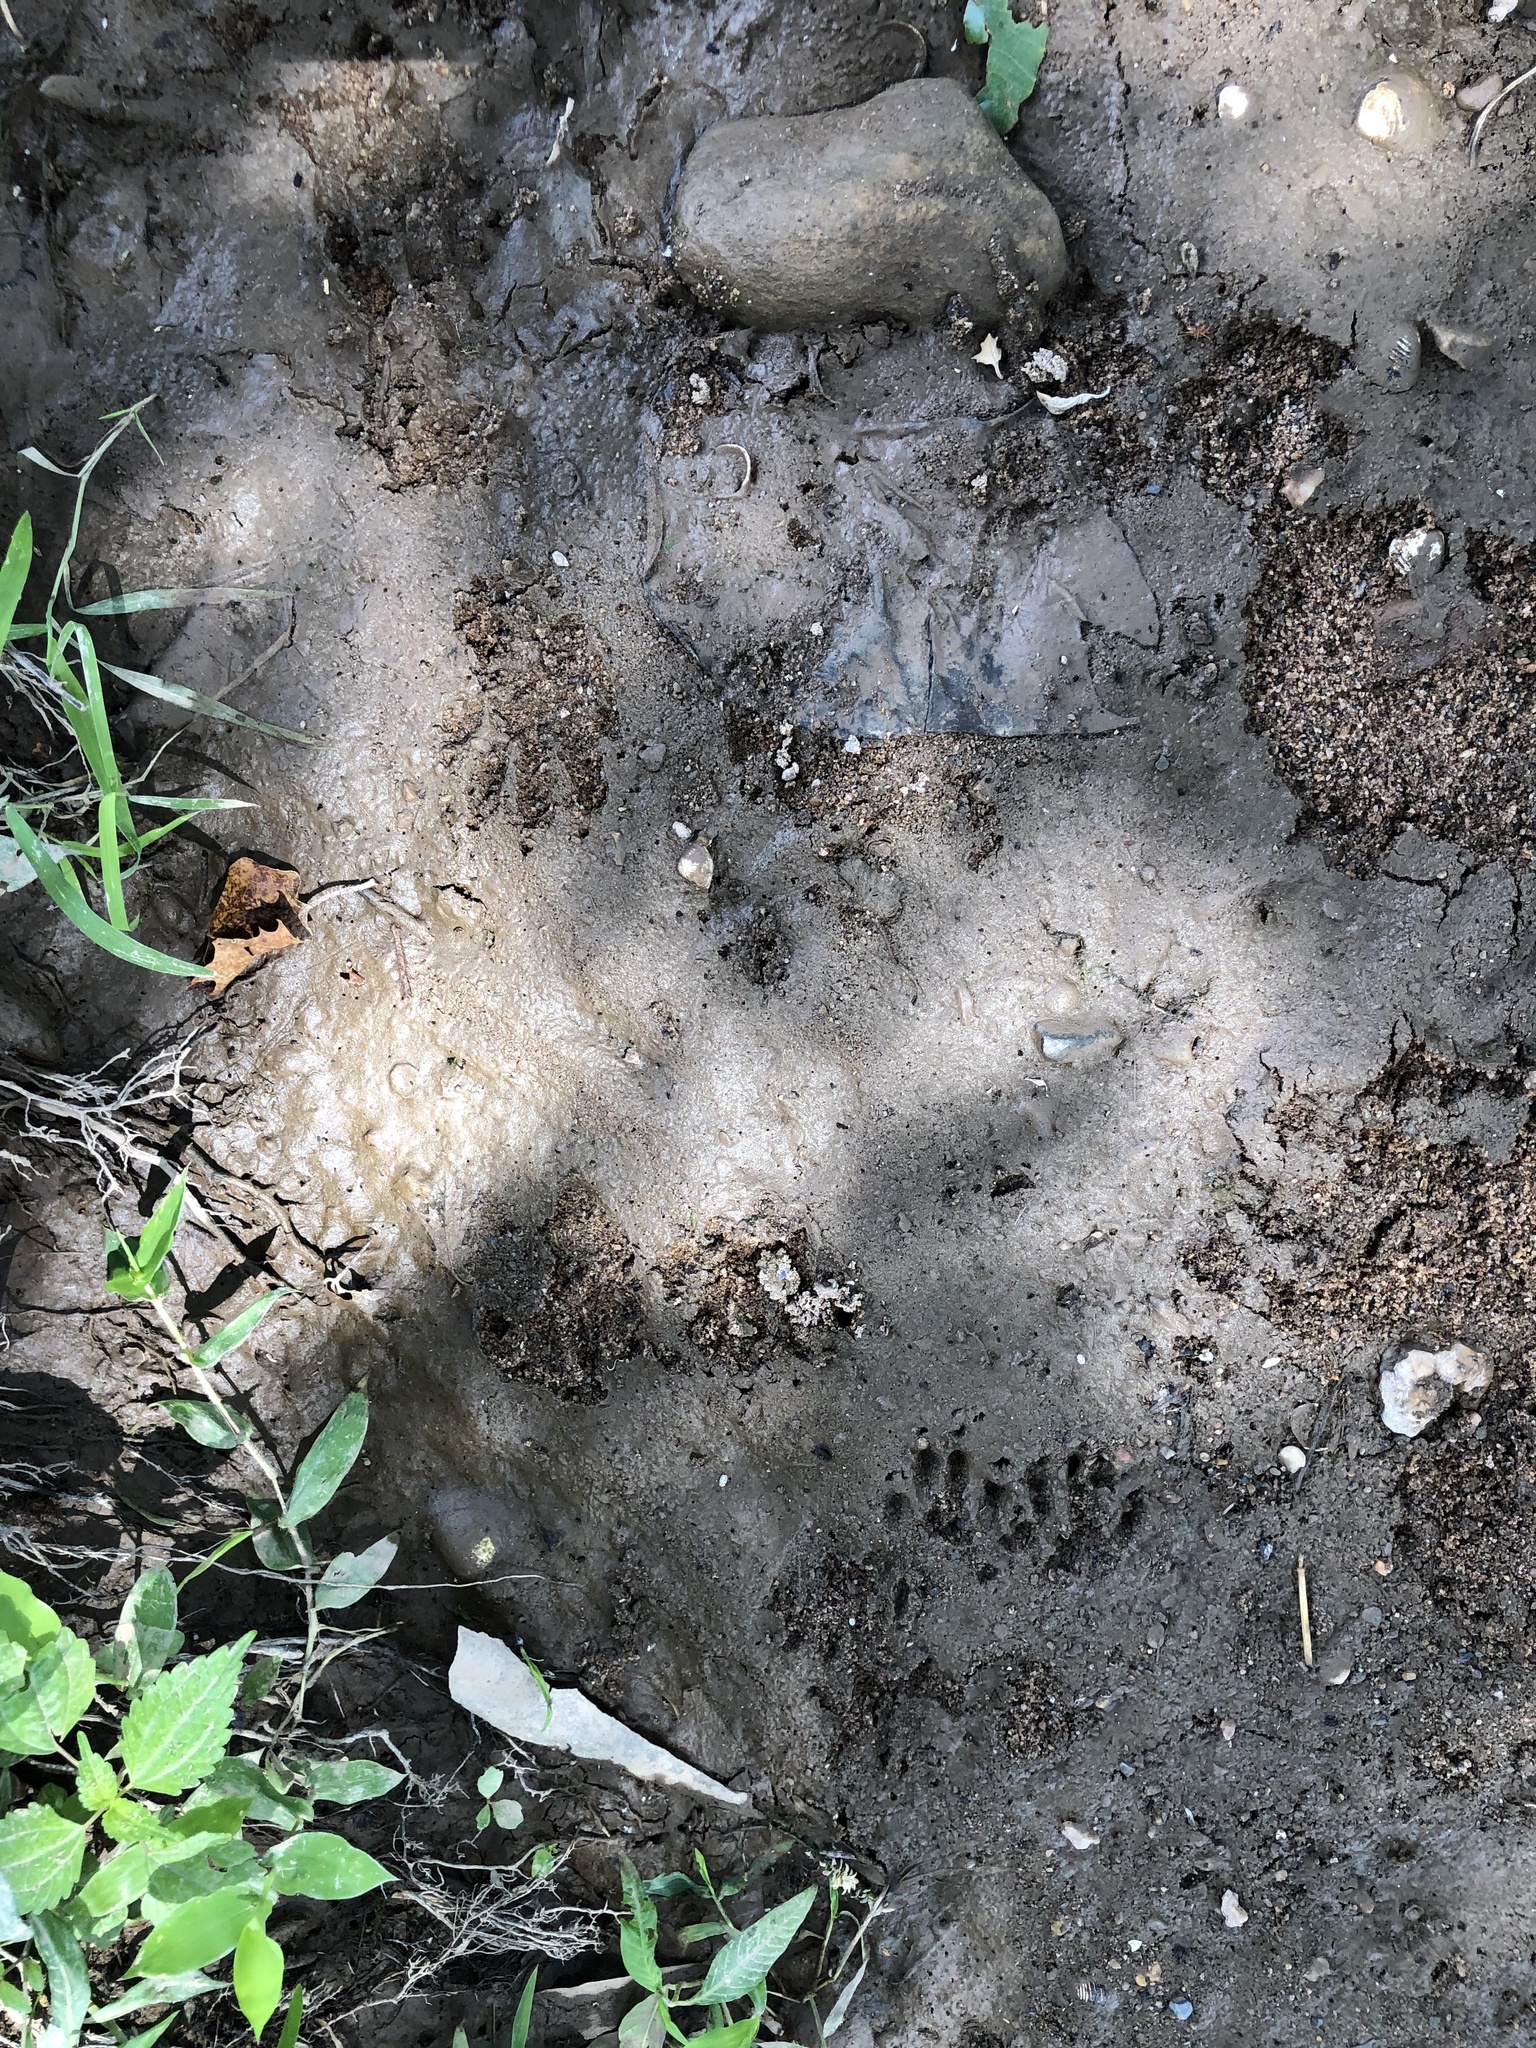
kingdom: Animalia
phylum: Chordata
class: Mammalia
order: Carnivora
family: Procyonidae
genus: Procyon
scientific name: Procyon lotor
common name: Raccoon
